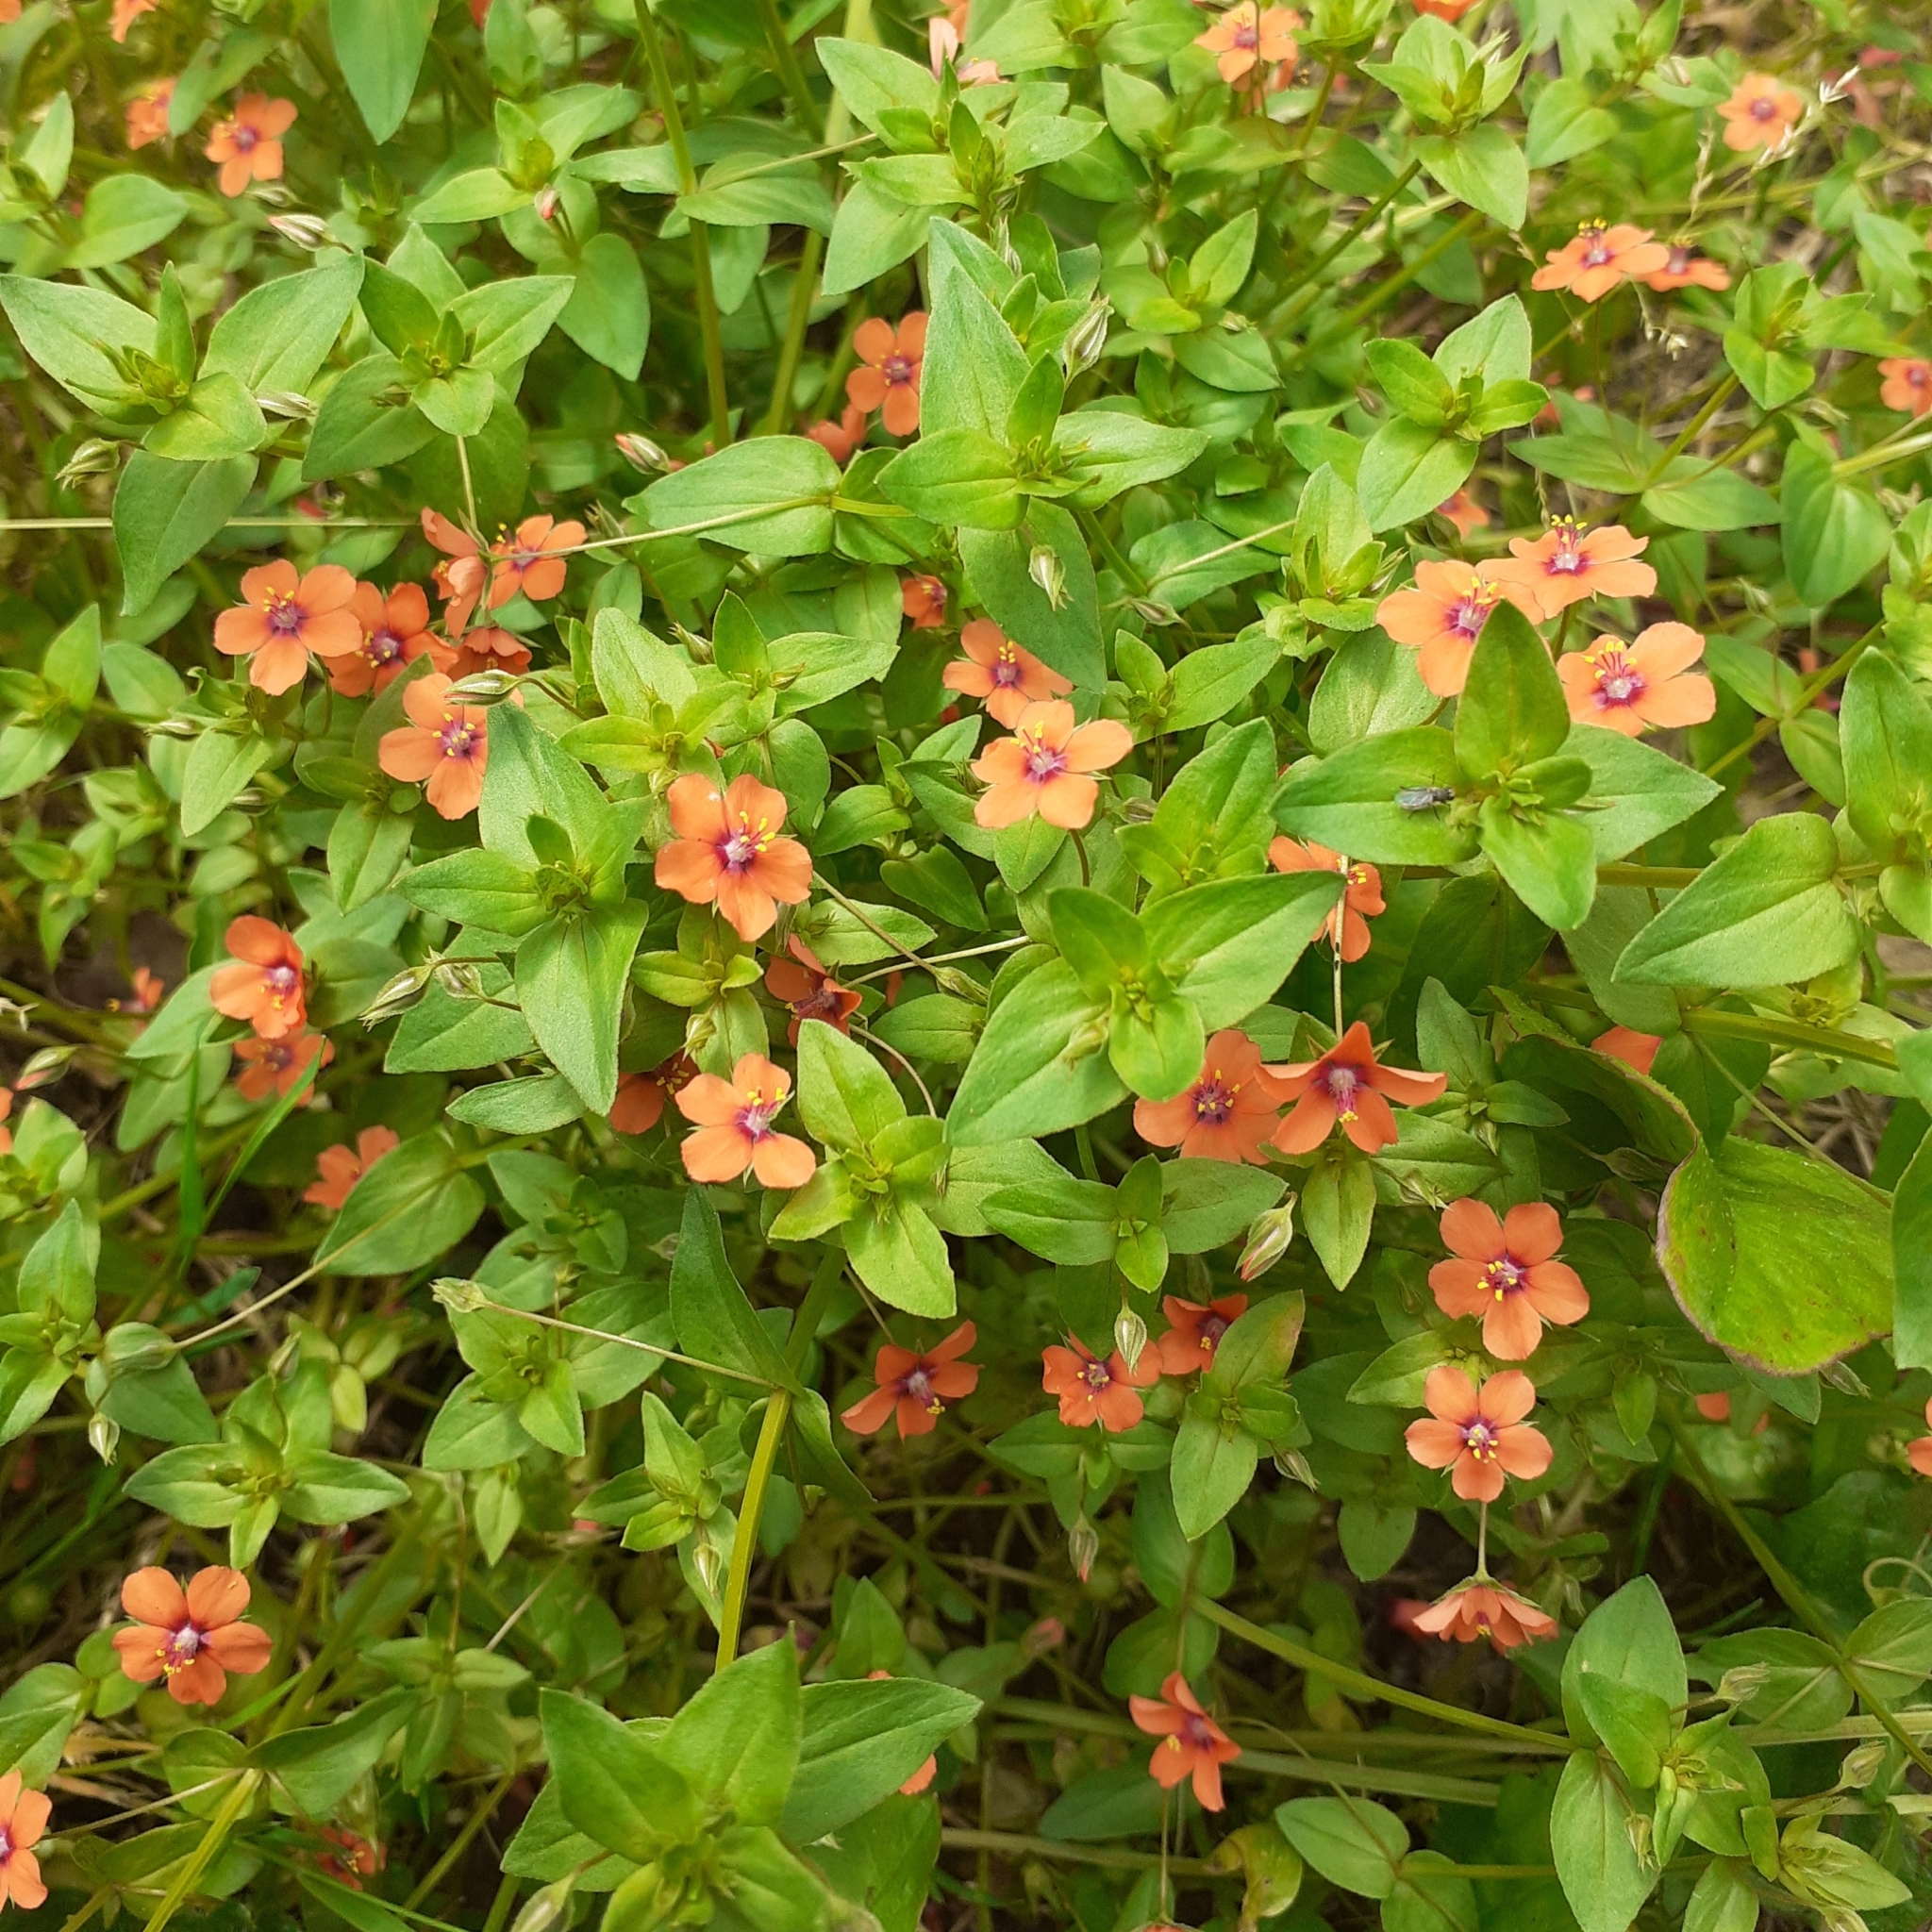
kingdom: Plantae
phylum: Tracheophyta
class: Magnoliopsida
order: Ericales
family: Primulaceae
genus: Lysimachia
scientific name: Lysimachia arvensis
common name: Scarlet pimpernel
